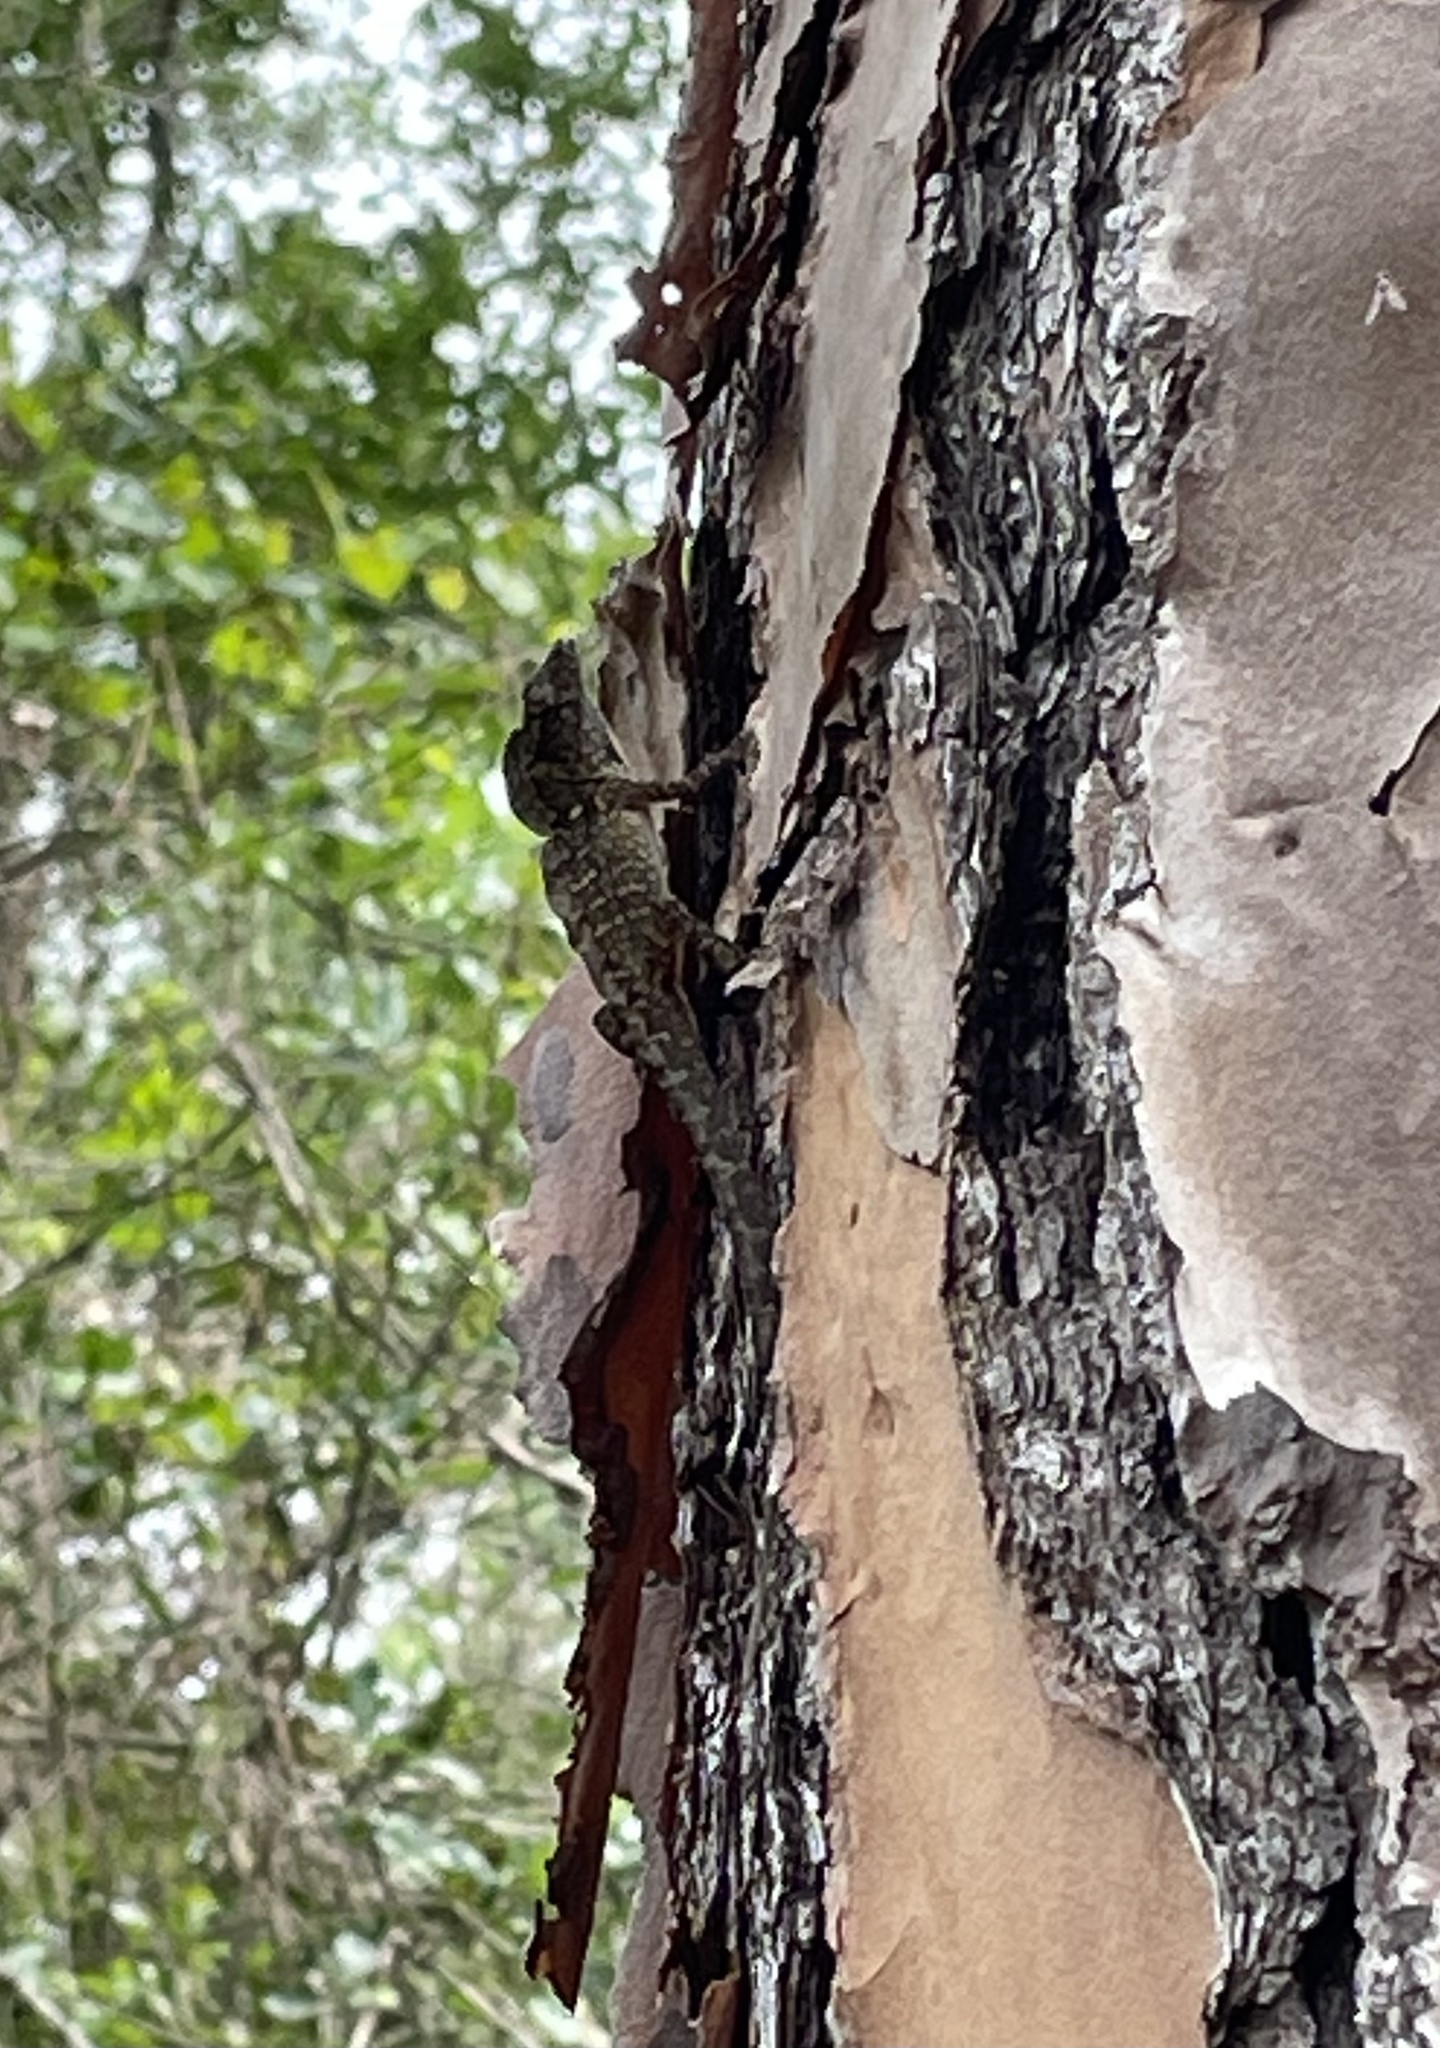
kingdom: Animalia
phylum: Chordata
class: Squamata
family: Dactyloidae
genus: Anolis
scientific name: Anolis sagrei
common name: Brown anole
